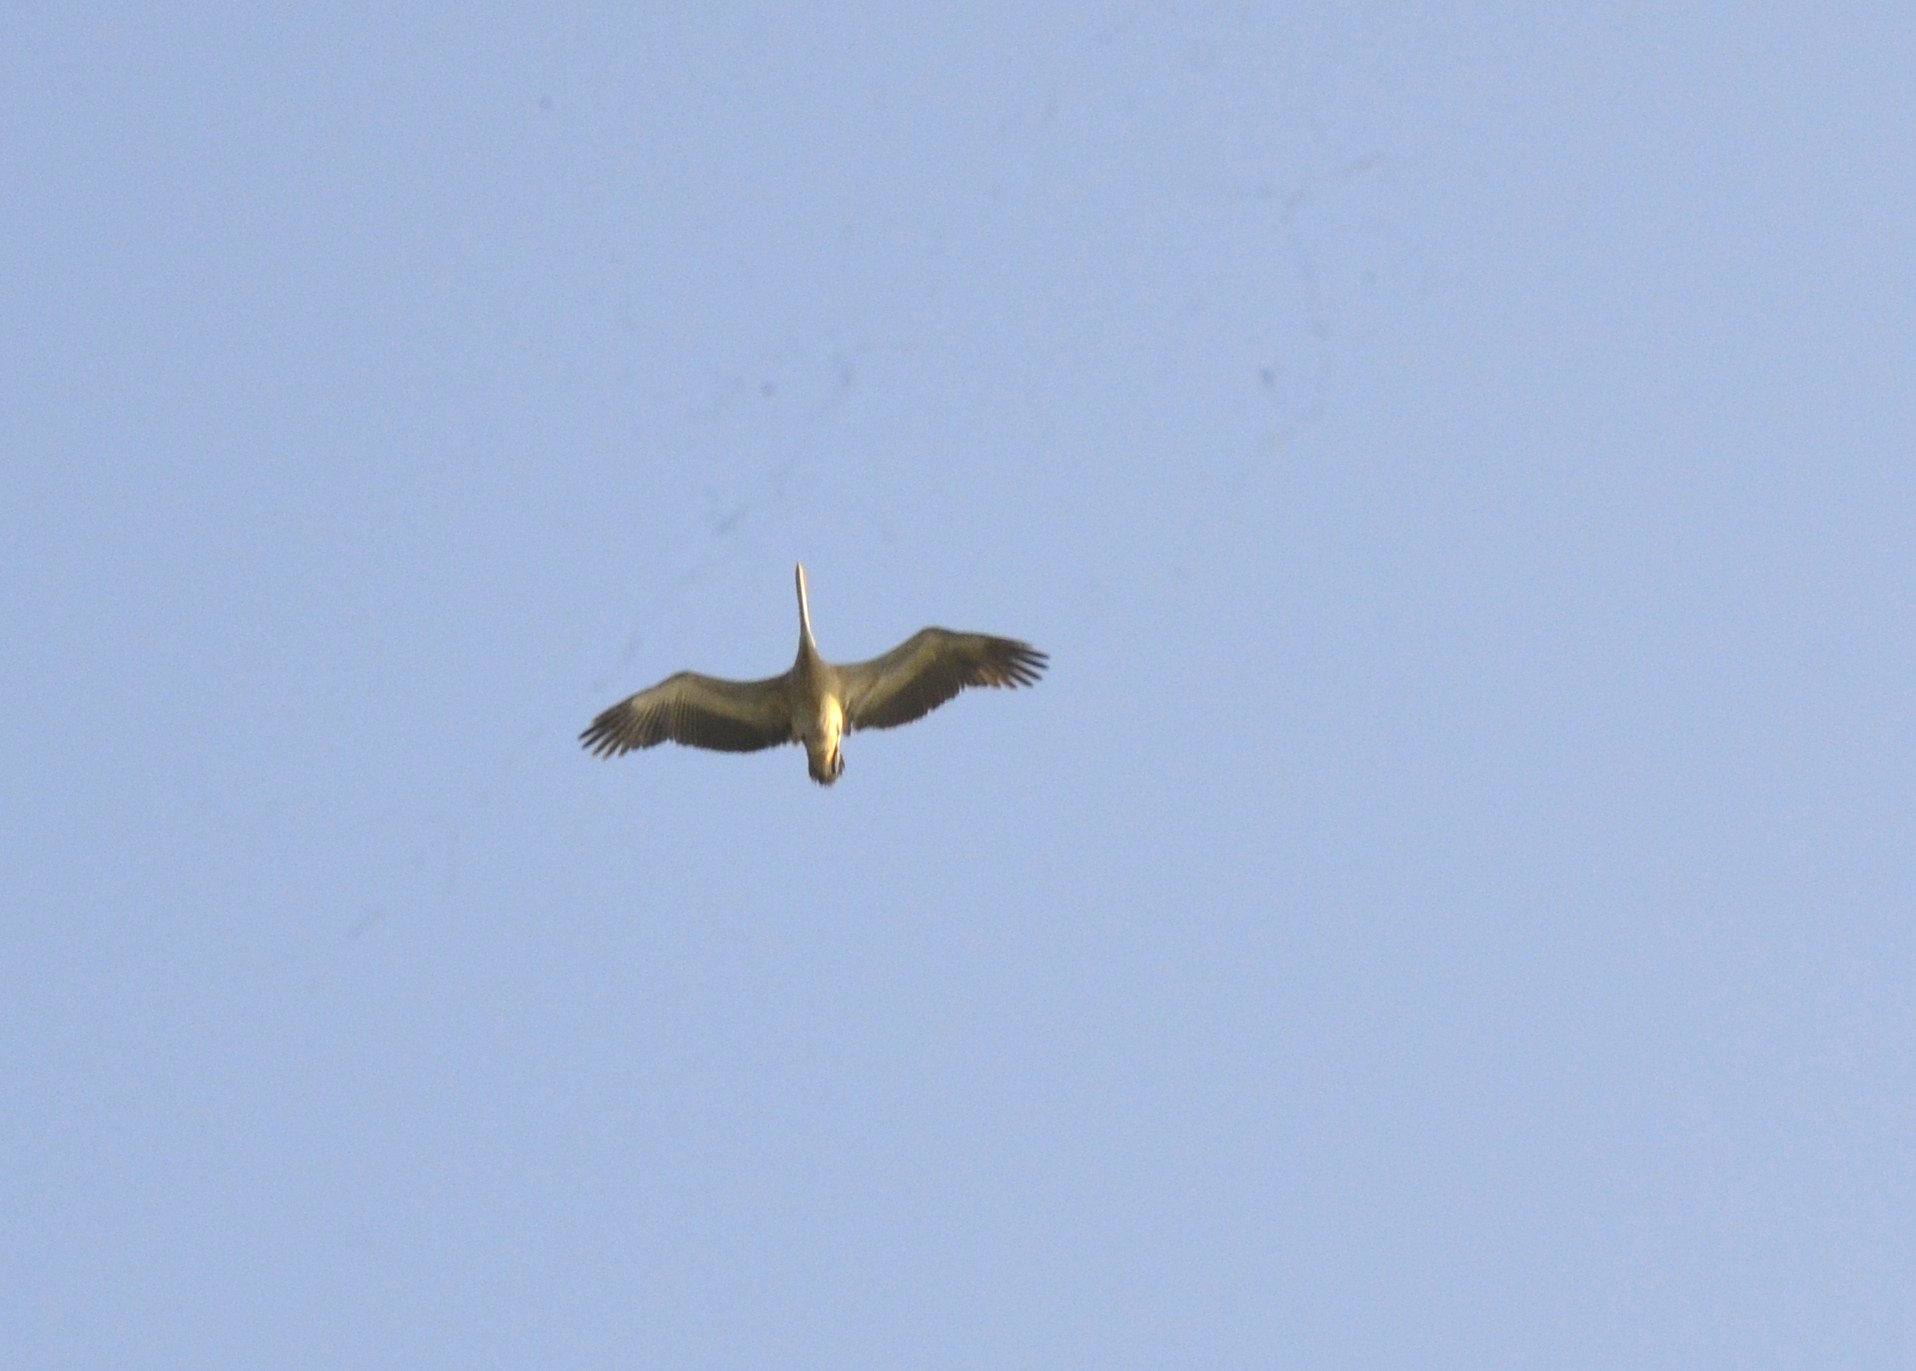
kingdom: Animalia
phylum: Chordata
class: Aves
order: Pelecaniformes
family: Pelecanidae
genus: Pelecanus
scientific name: Pelecanus philippensis
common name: Spot-billed pelican
